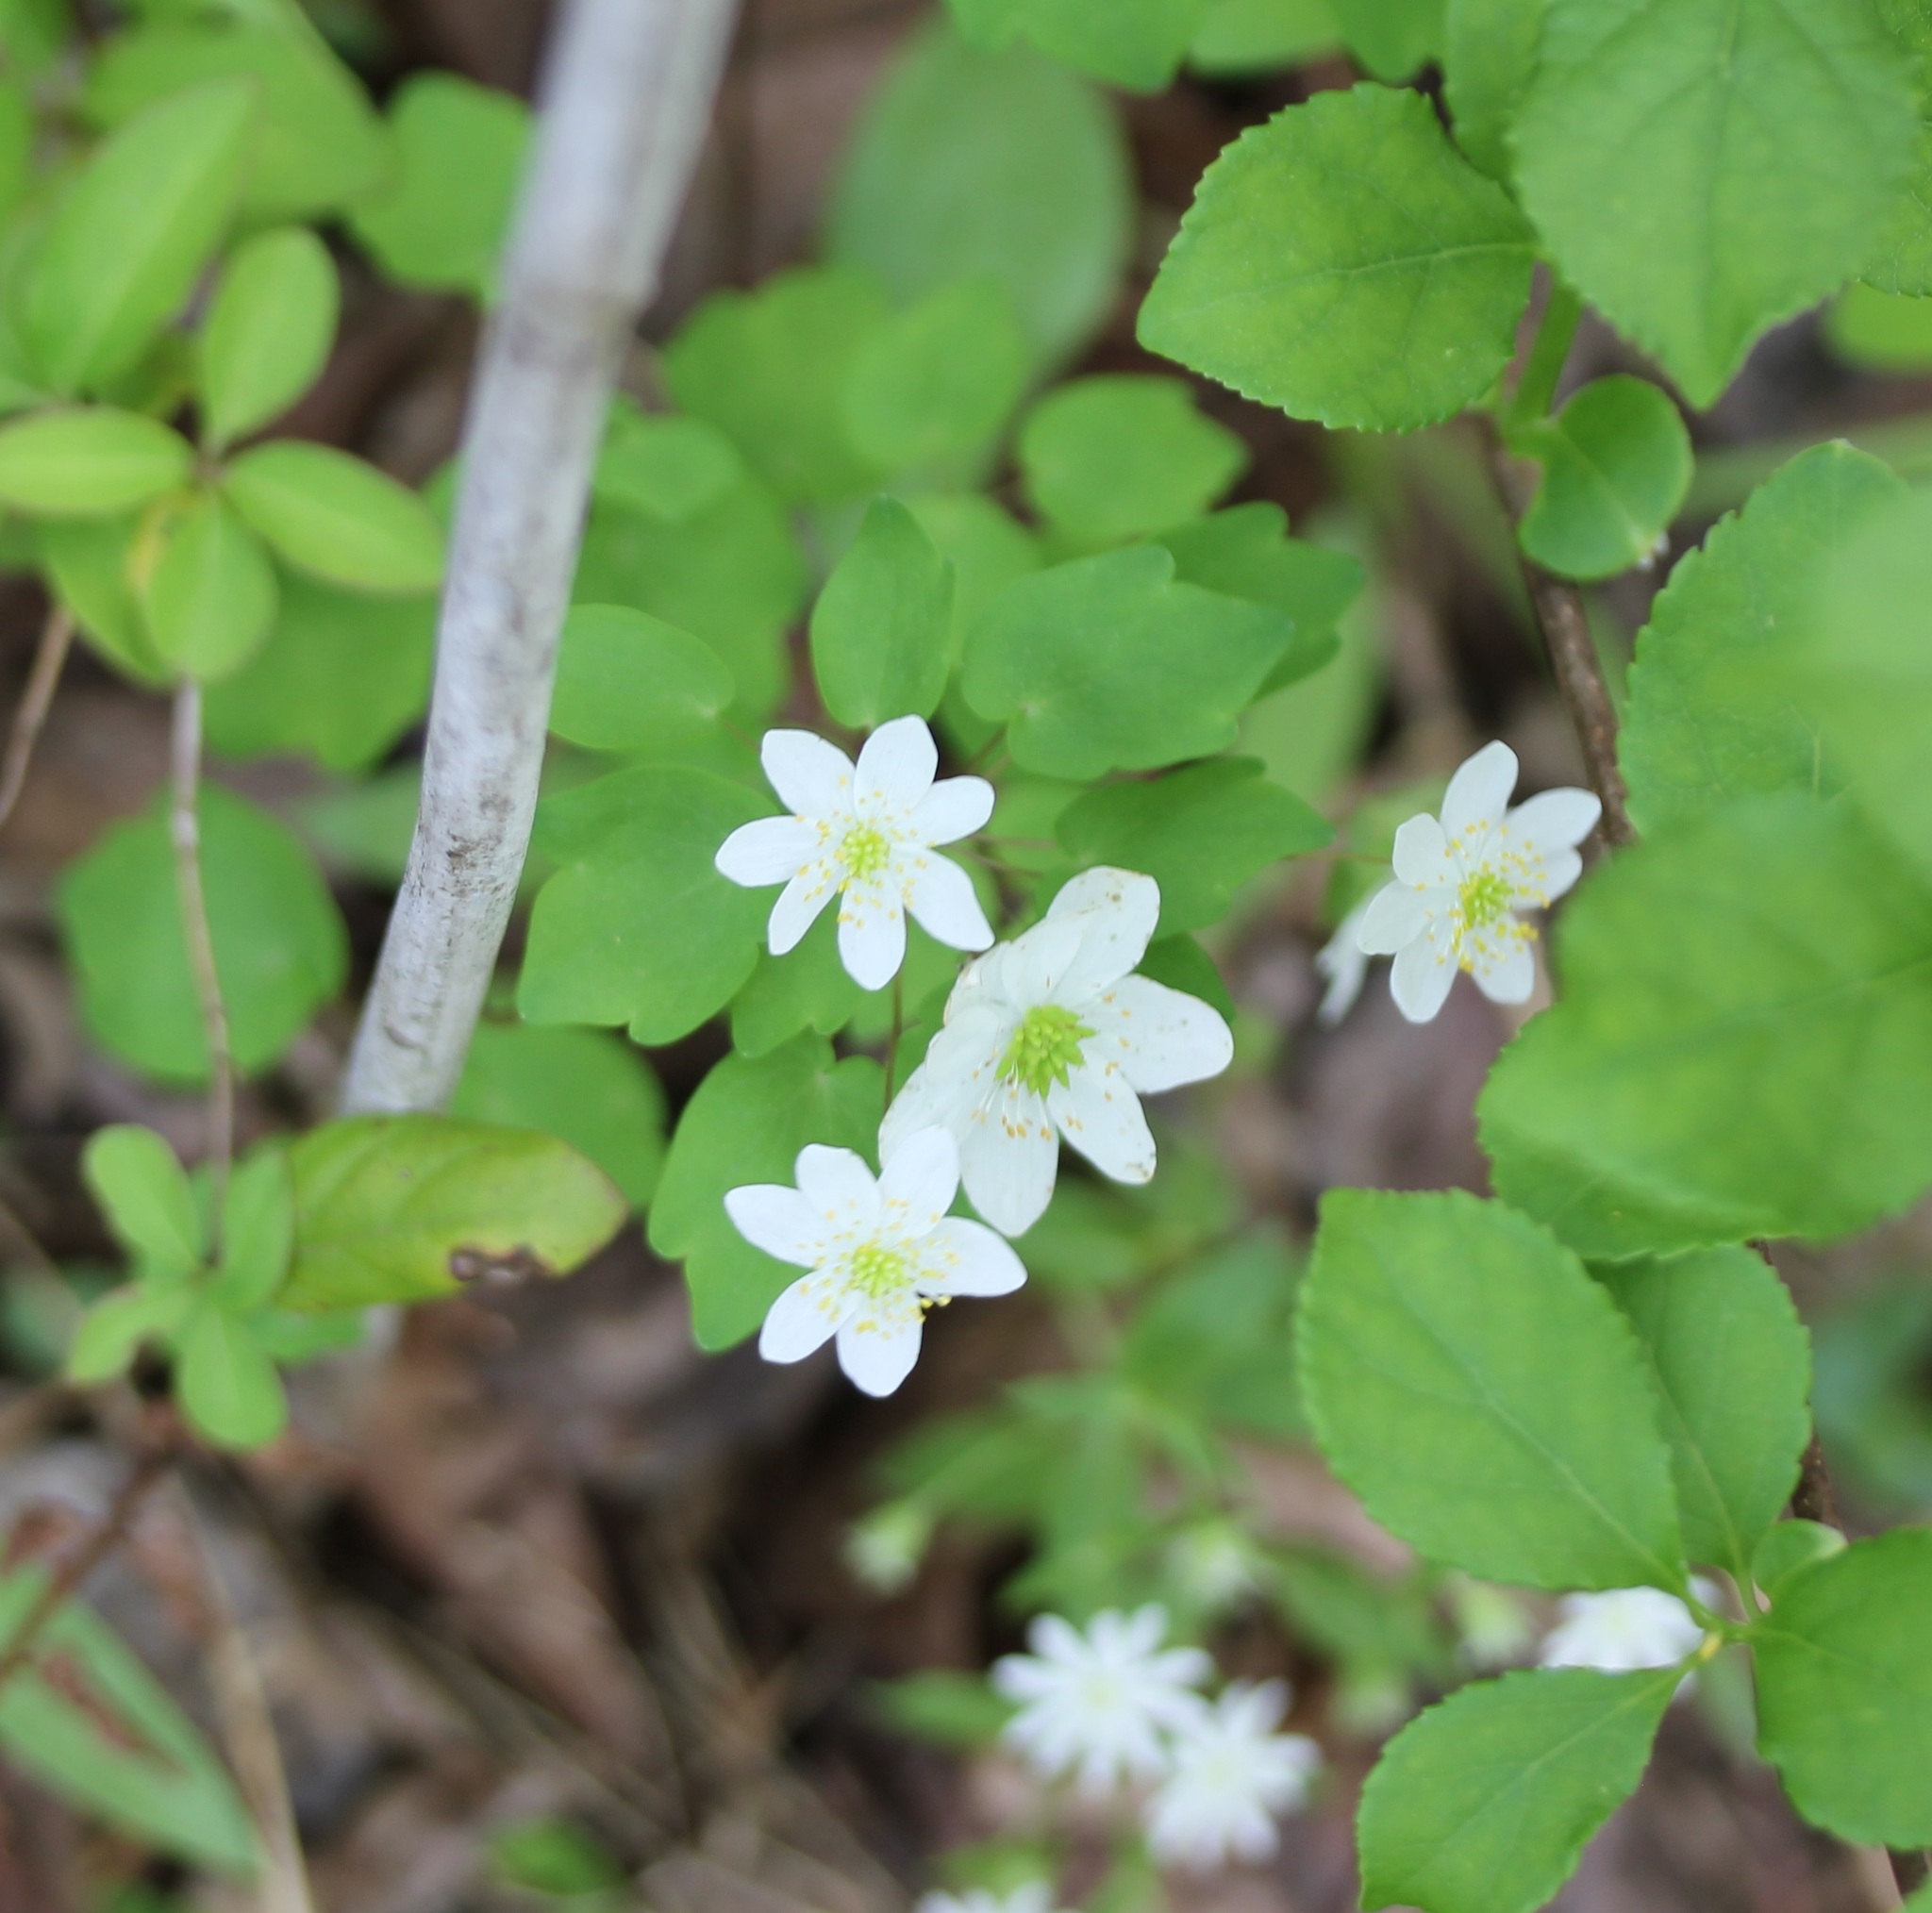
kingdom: Plantae
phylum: Tracheophyta
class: Magnoliopsida
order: Ranunculales
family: Ranunculaceae
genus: Thalictrum
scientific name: Thalictrum thalictroides
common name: Rue-anemone
